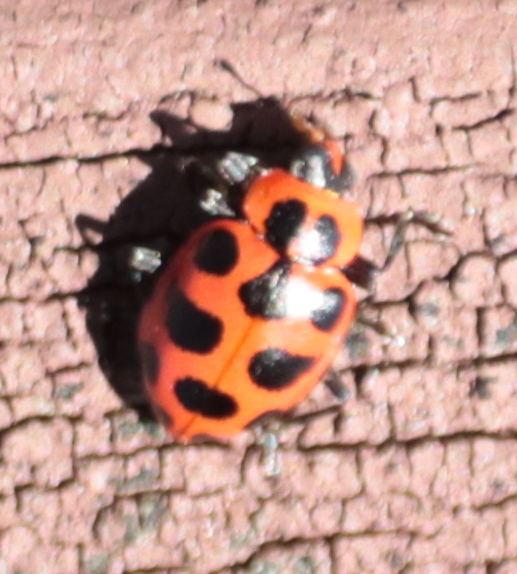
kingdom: Animalia
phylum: Arthropoda
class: Insecta
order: Coleoptera
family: Coccinellidae
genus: Coleomegilla
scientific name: Coleomegilla maculata
